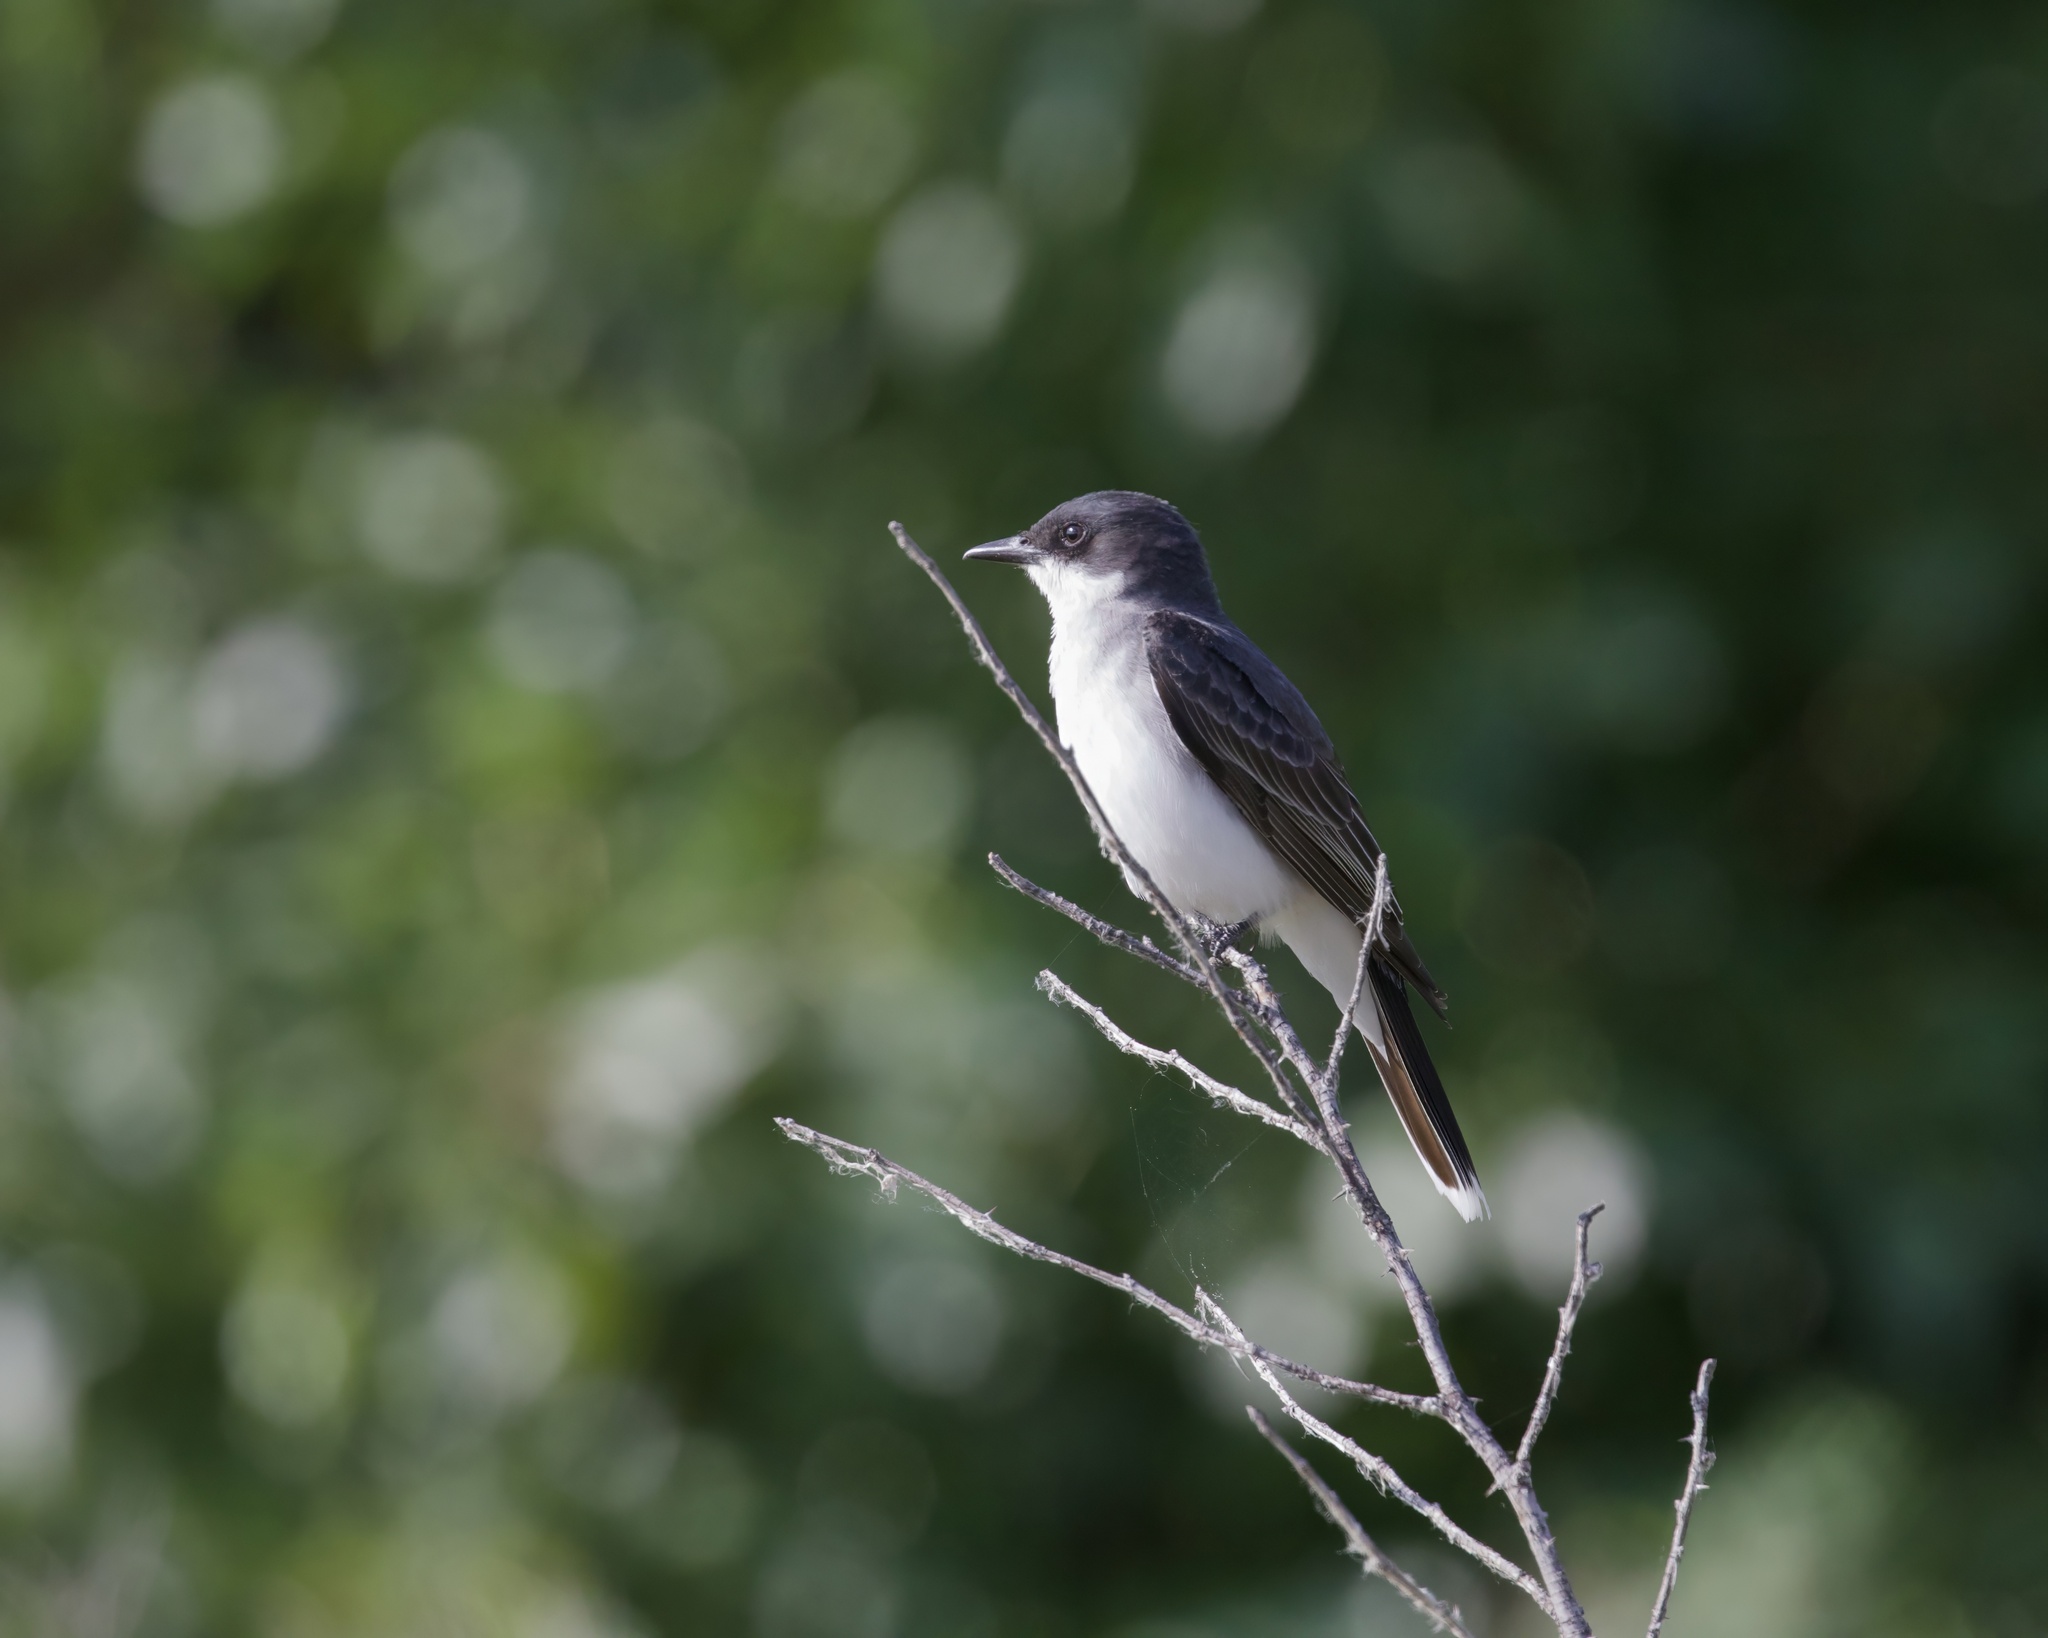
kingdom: Animalia
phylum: Chordata
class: Aves
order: Passeriformes
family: Tyrannidae
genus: Tyrannus
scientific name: Tyrannus tyrannus
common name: Eastern kingbird
